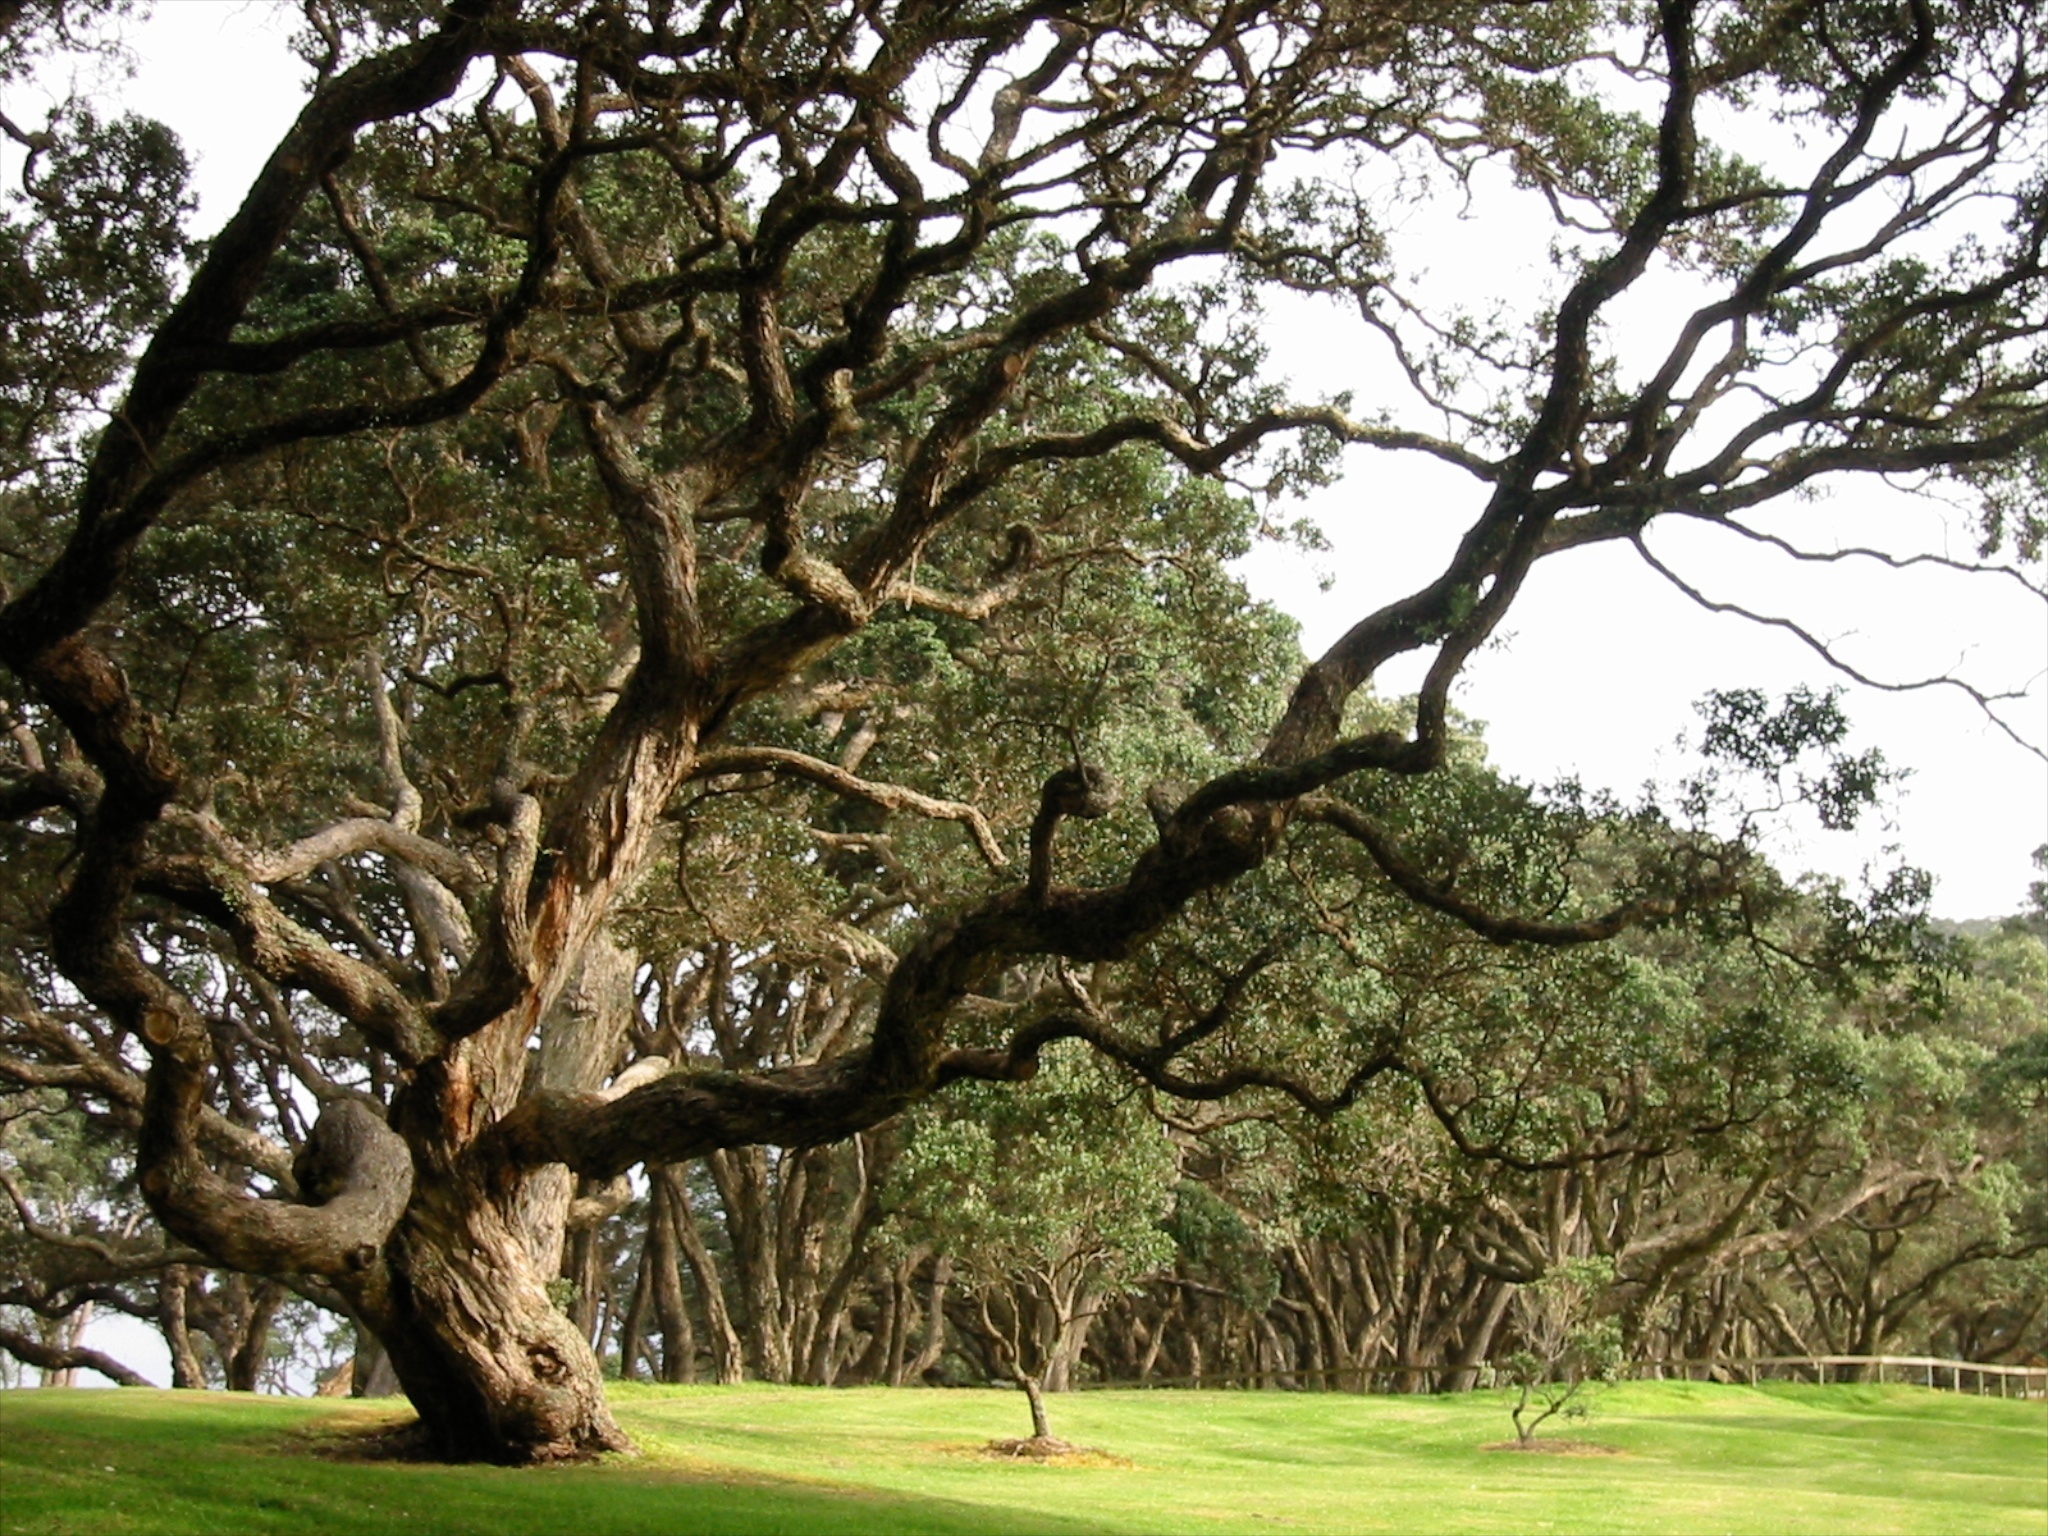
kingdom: Plantae
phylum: Tracheophyta
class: Magnoliopsida
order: Myrtales
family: Myrtaceae
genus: Metrosideros
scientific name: Metrosideros excelsa
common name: New zealand christmastree
